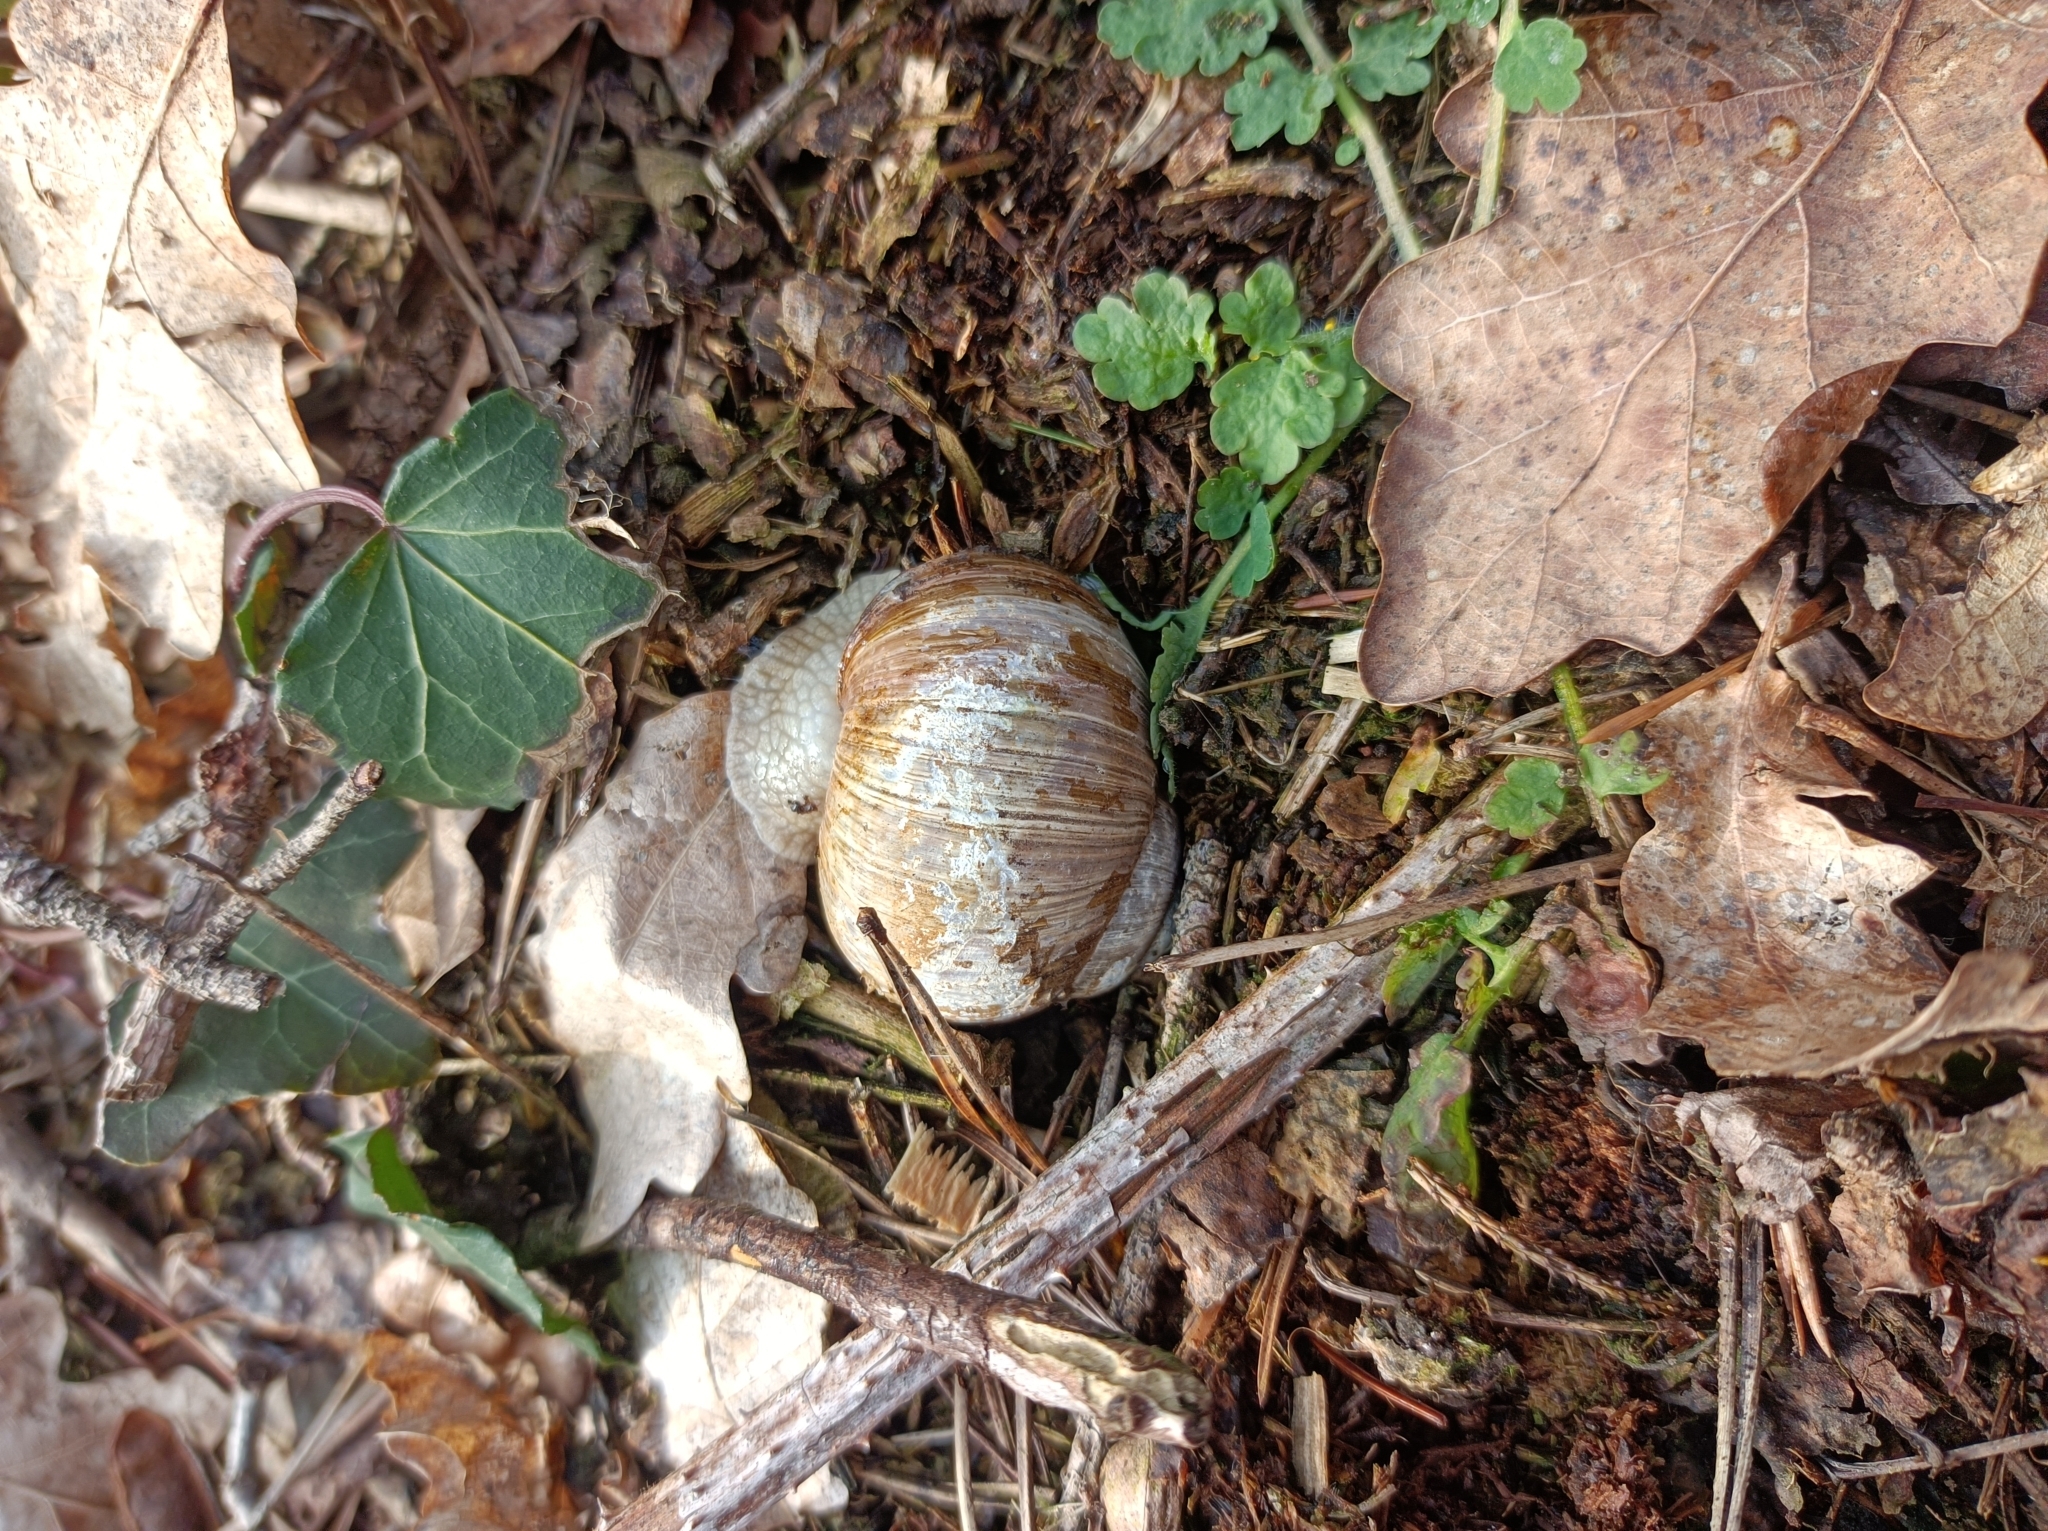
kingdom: Animalia
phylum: Mollusca
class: Gastropoda
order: Stylommatophora
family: Helicidae
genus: Helix
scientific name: Helix pomatia
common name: Roman snail
